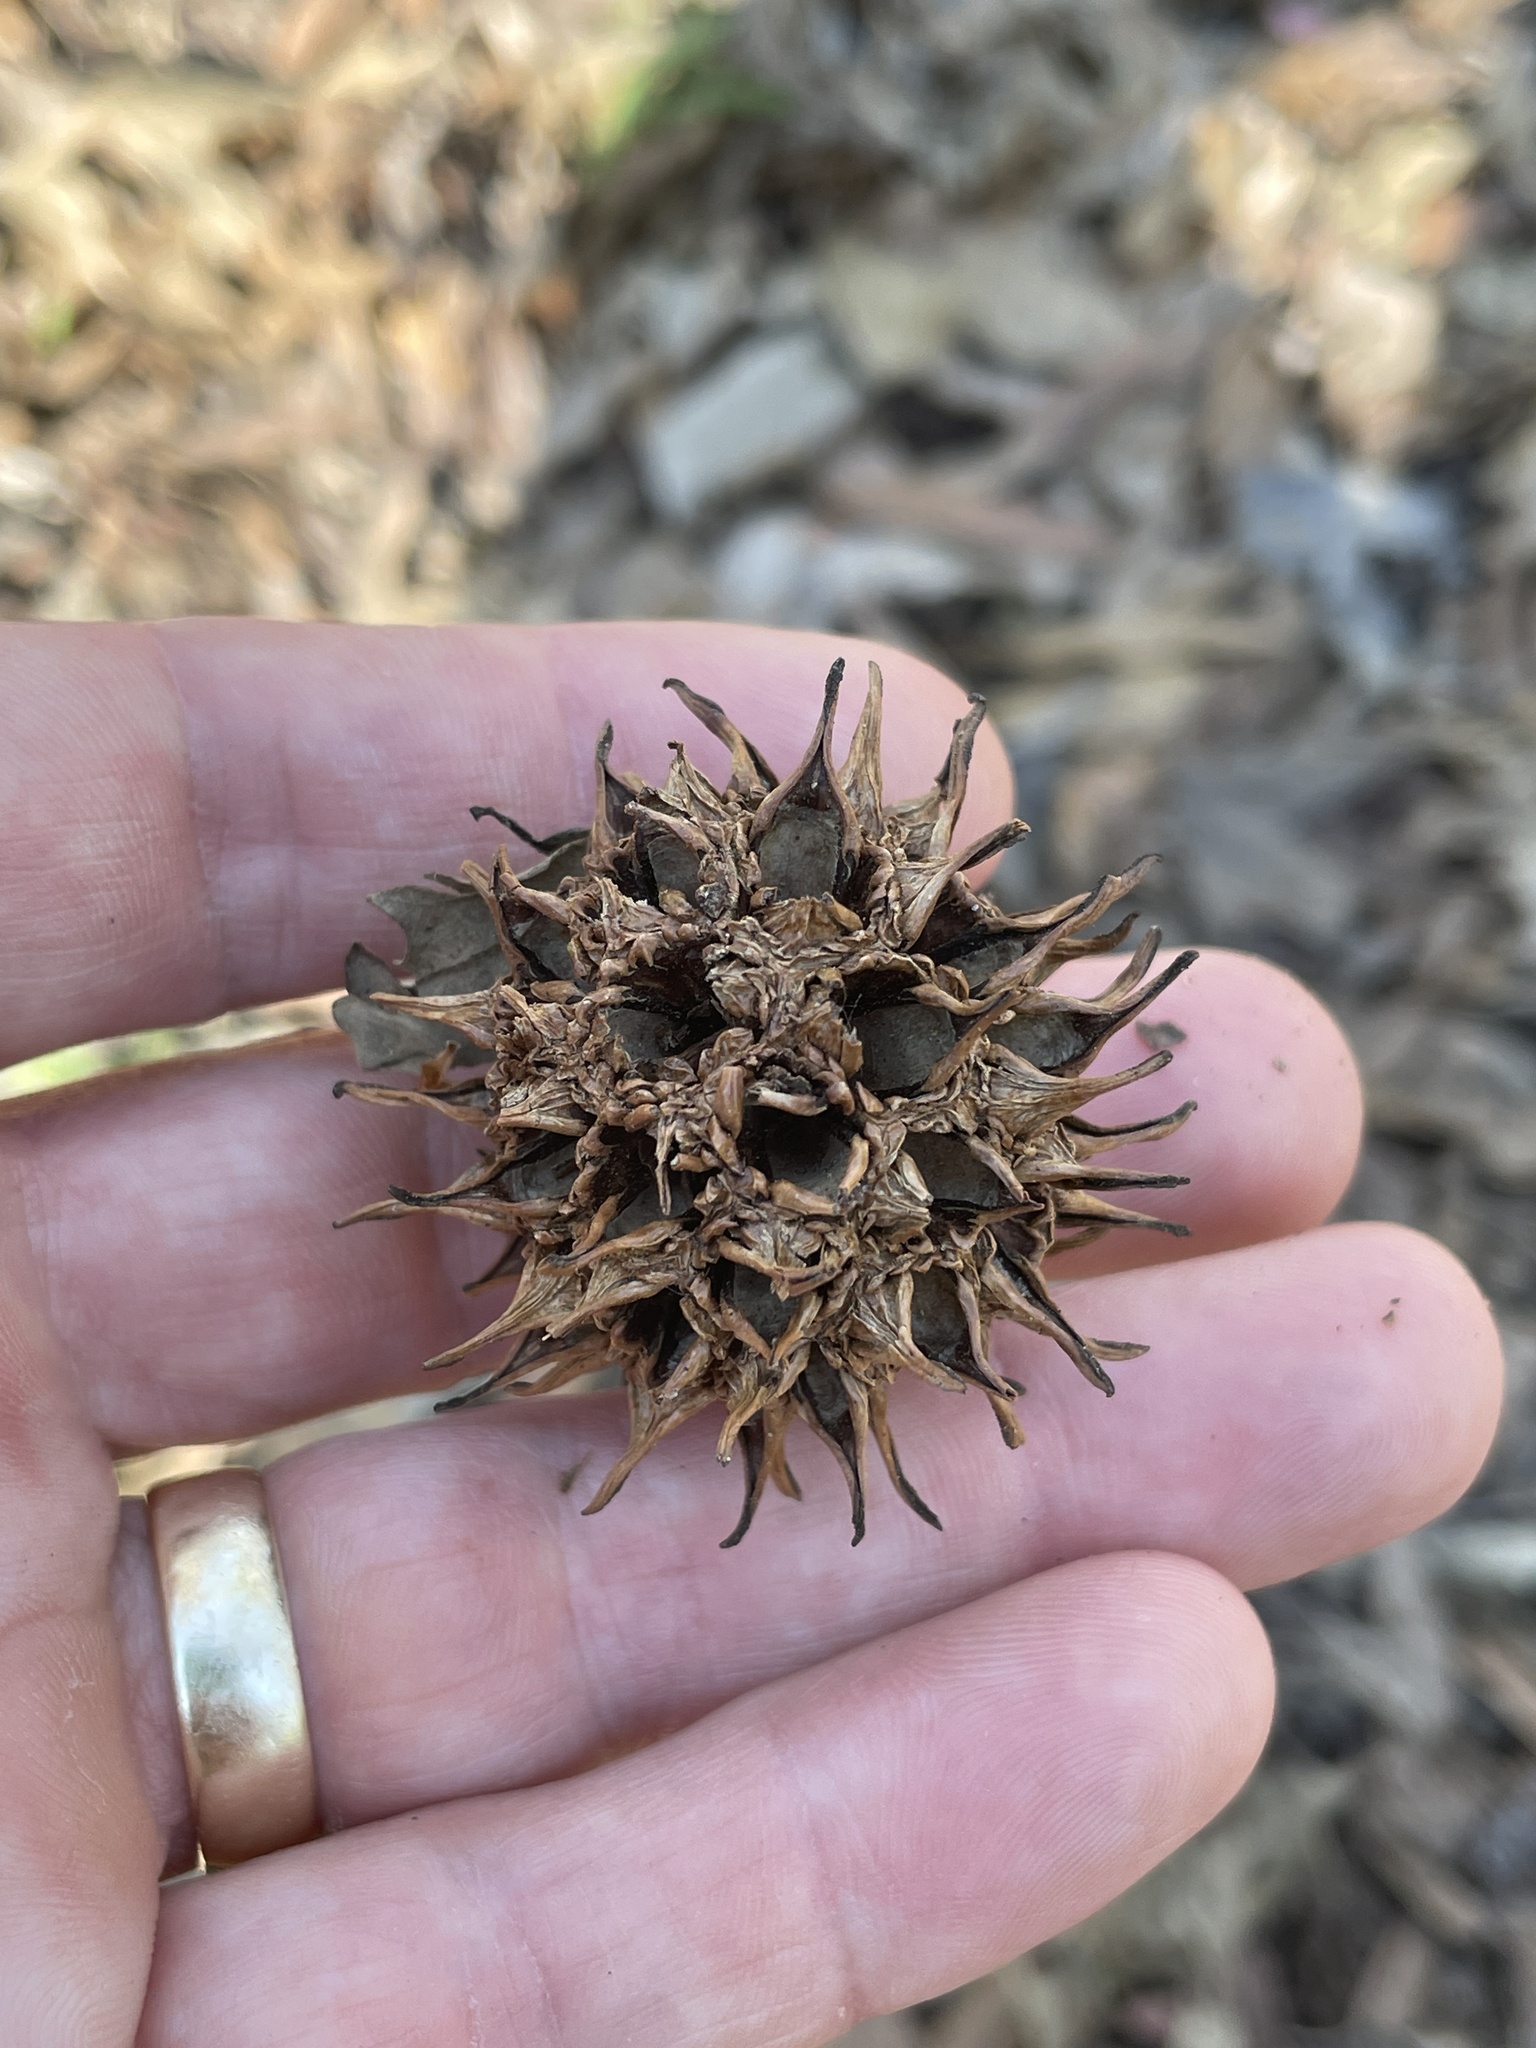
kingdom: Plantae
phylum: Tracheophyta
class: Magnoliopsida
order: Saxifragales
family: Altingiaceae
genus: Liquidambar
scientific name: Liquidambar styraciflua
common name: Sweet gum
